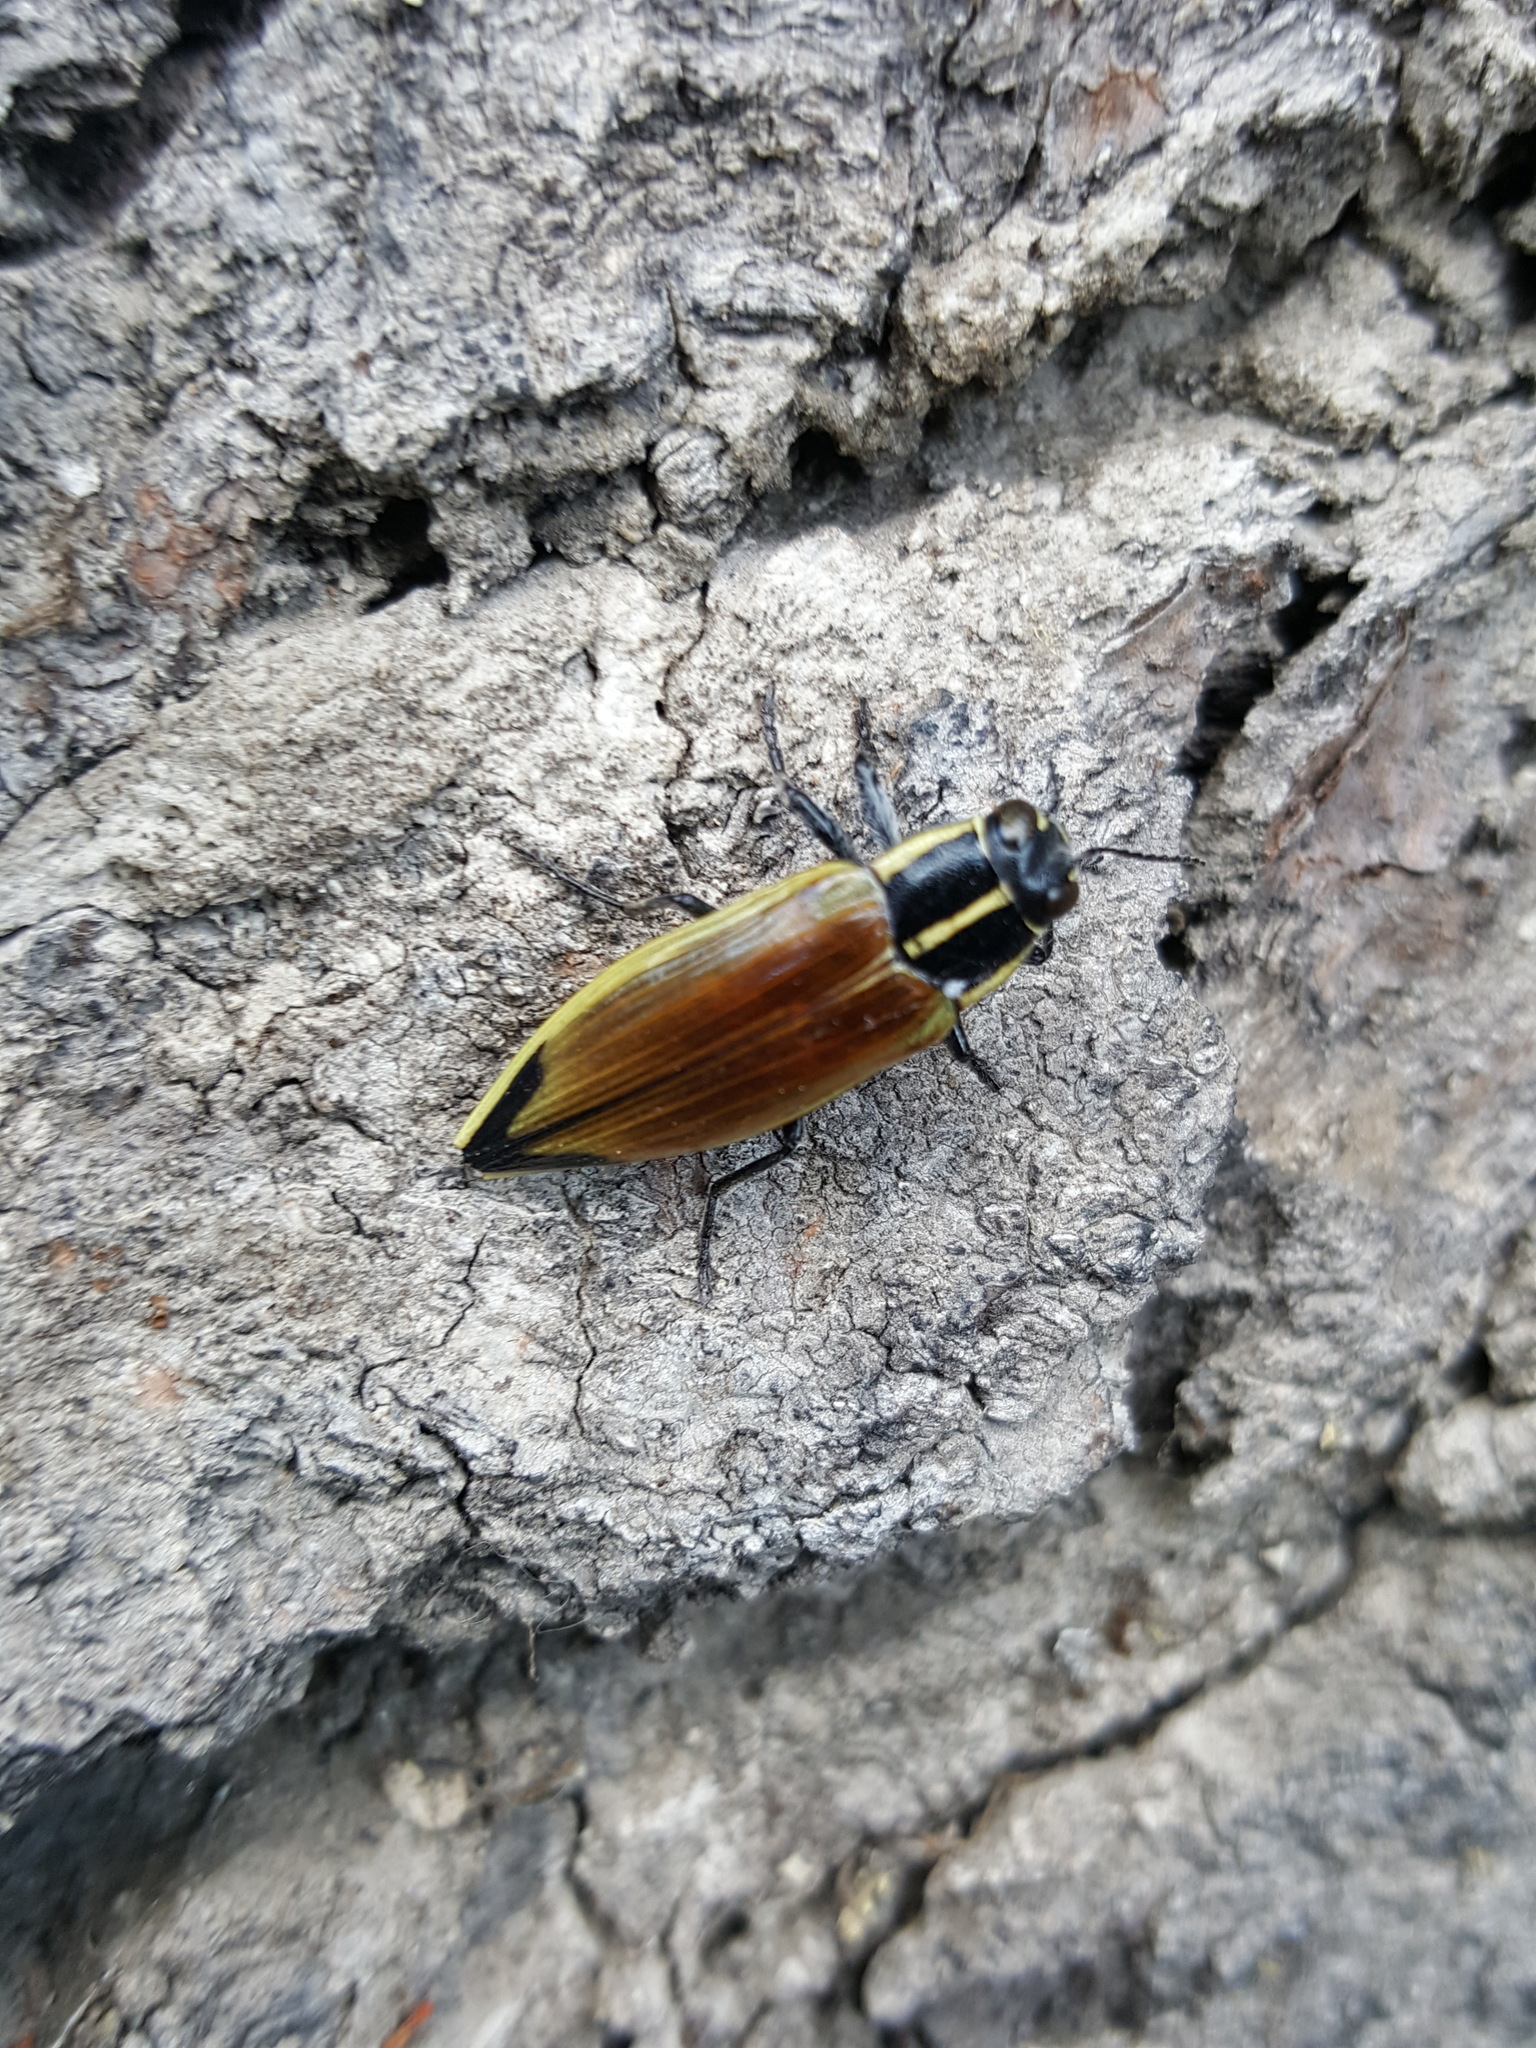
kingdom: Animalia
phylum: Arthropoda
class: Insecta
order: Coleoptera
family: Buprestidae
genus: Epistomentis
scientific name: Epistomentis pictus
